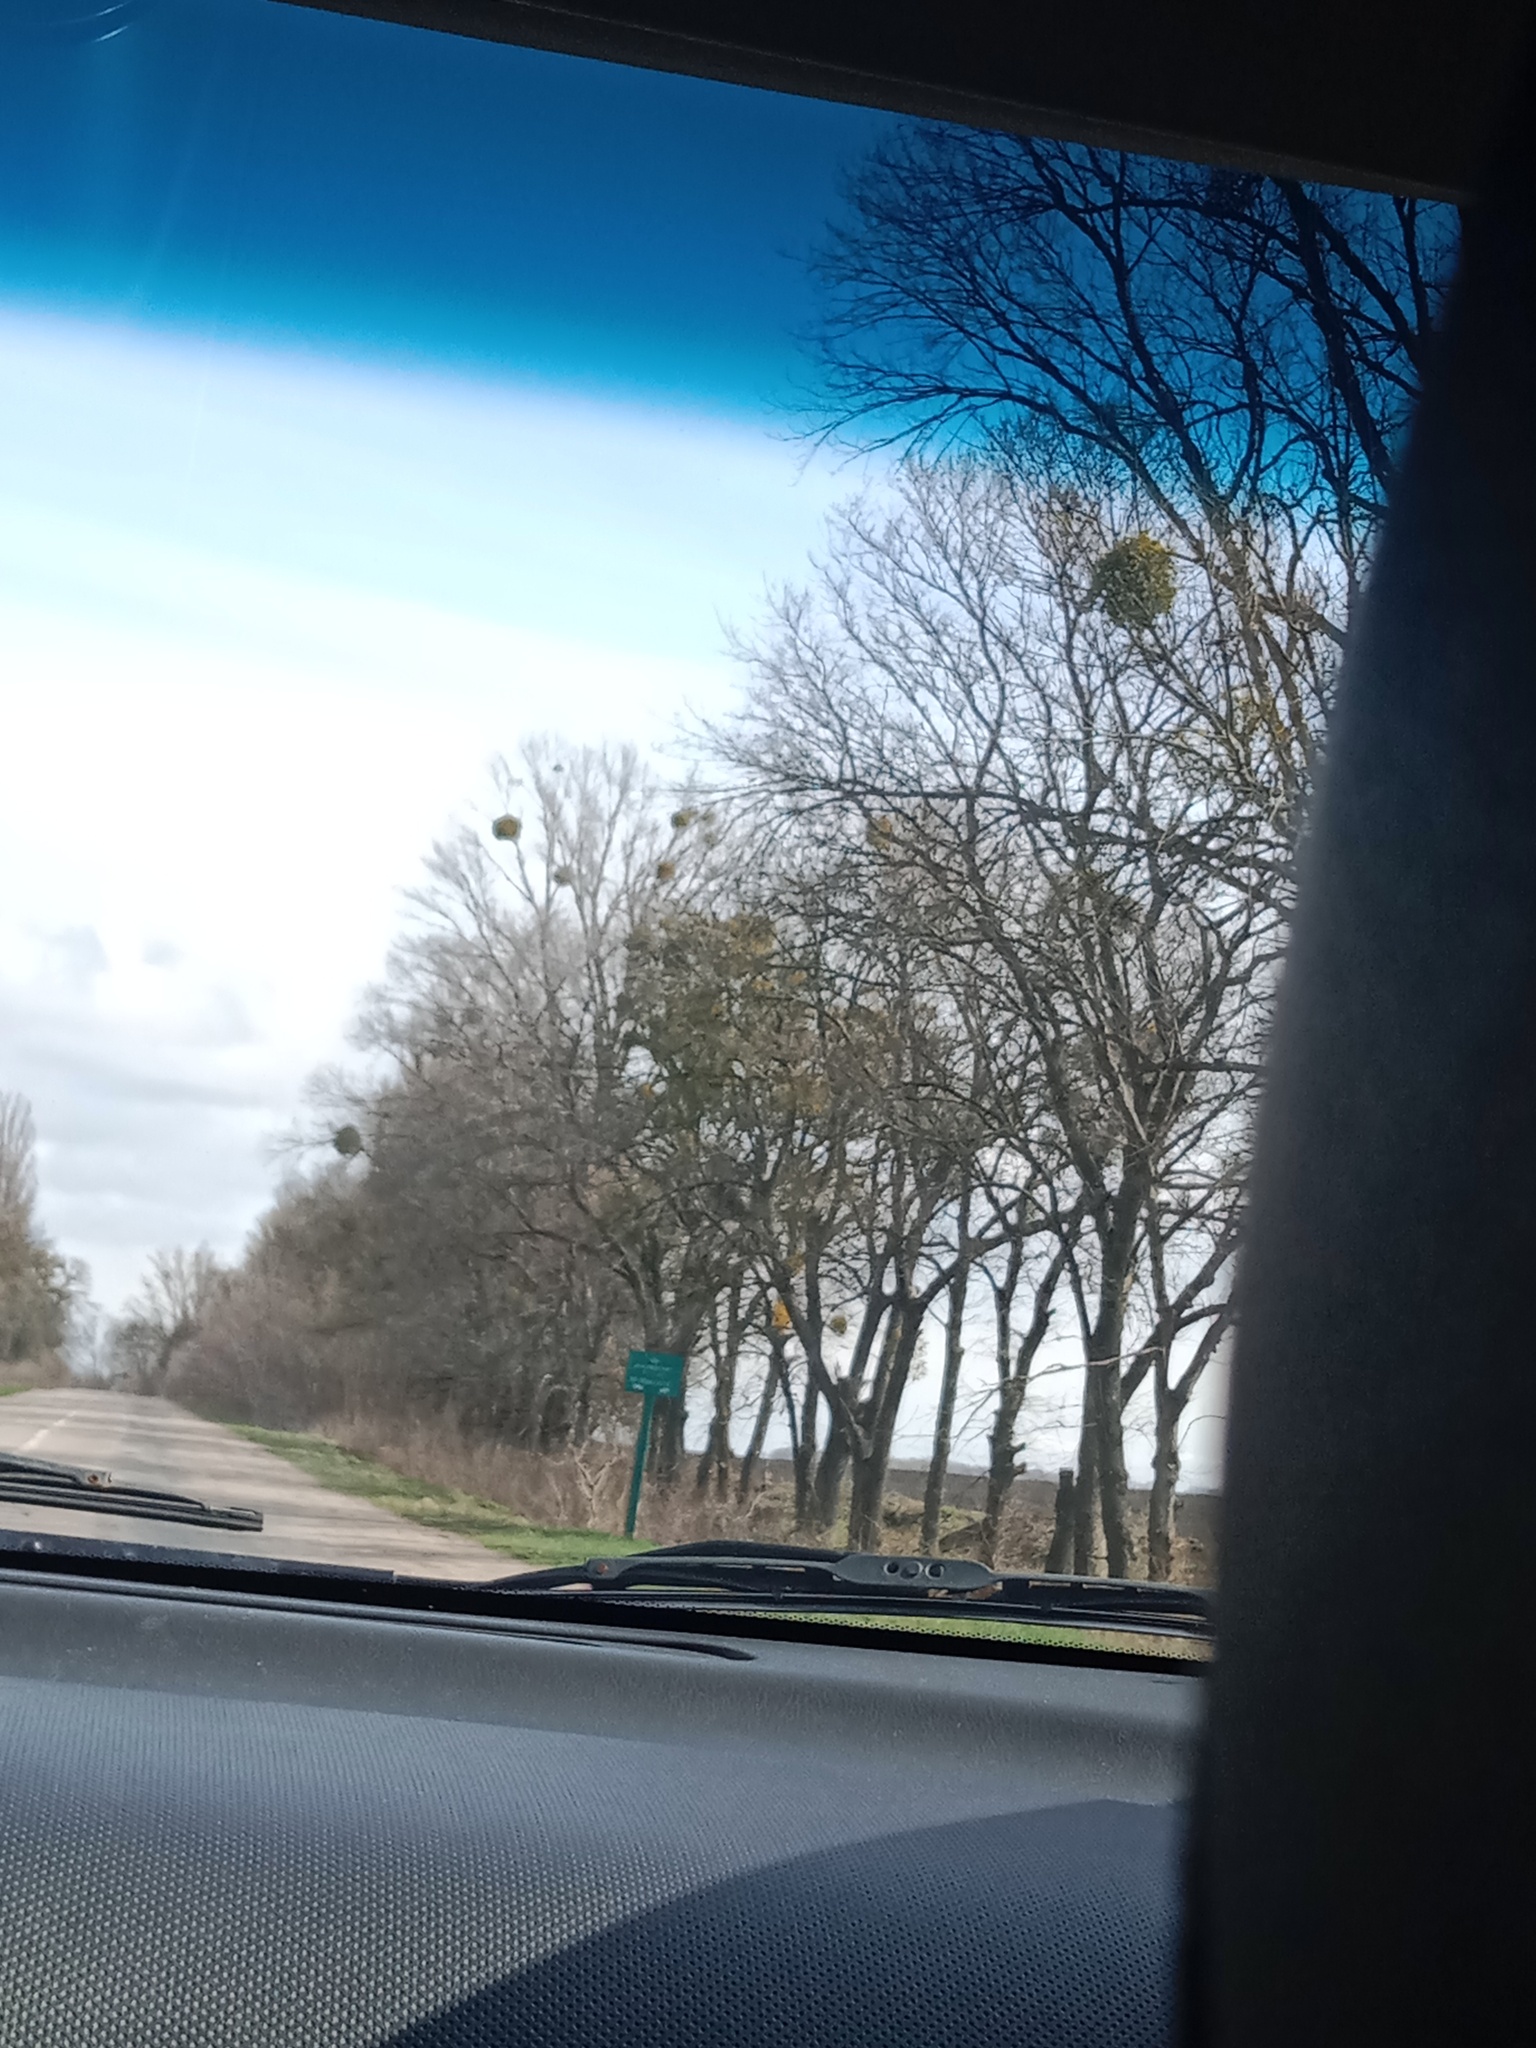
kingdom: Plantae
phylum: Tracheophyta
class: Magnoliopsida
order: Santalales
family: Viscaceae
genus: Viscum
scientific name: Viscum album
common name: Mistletoe
